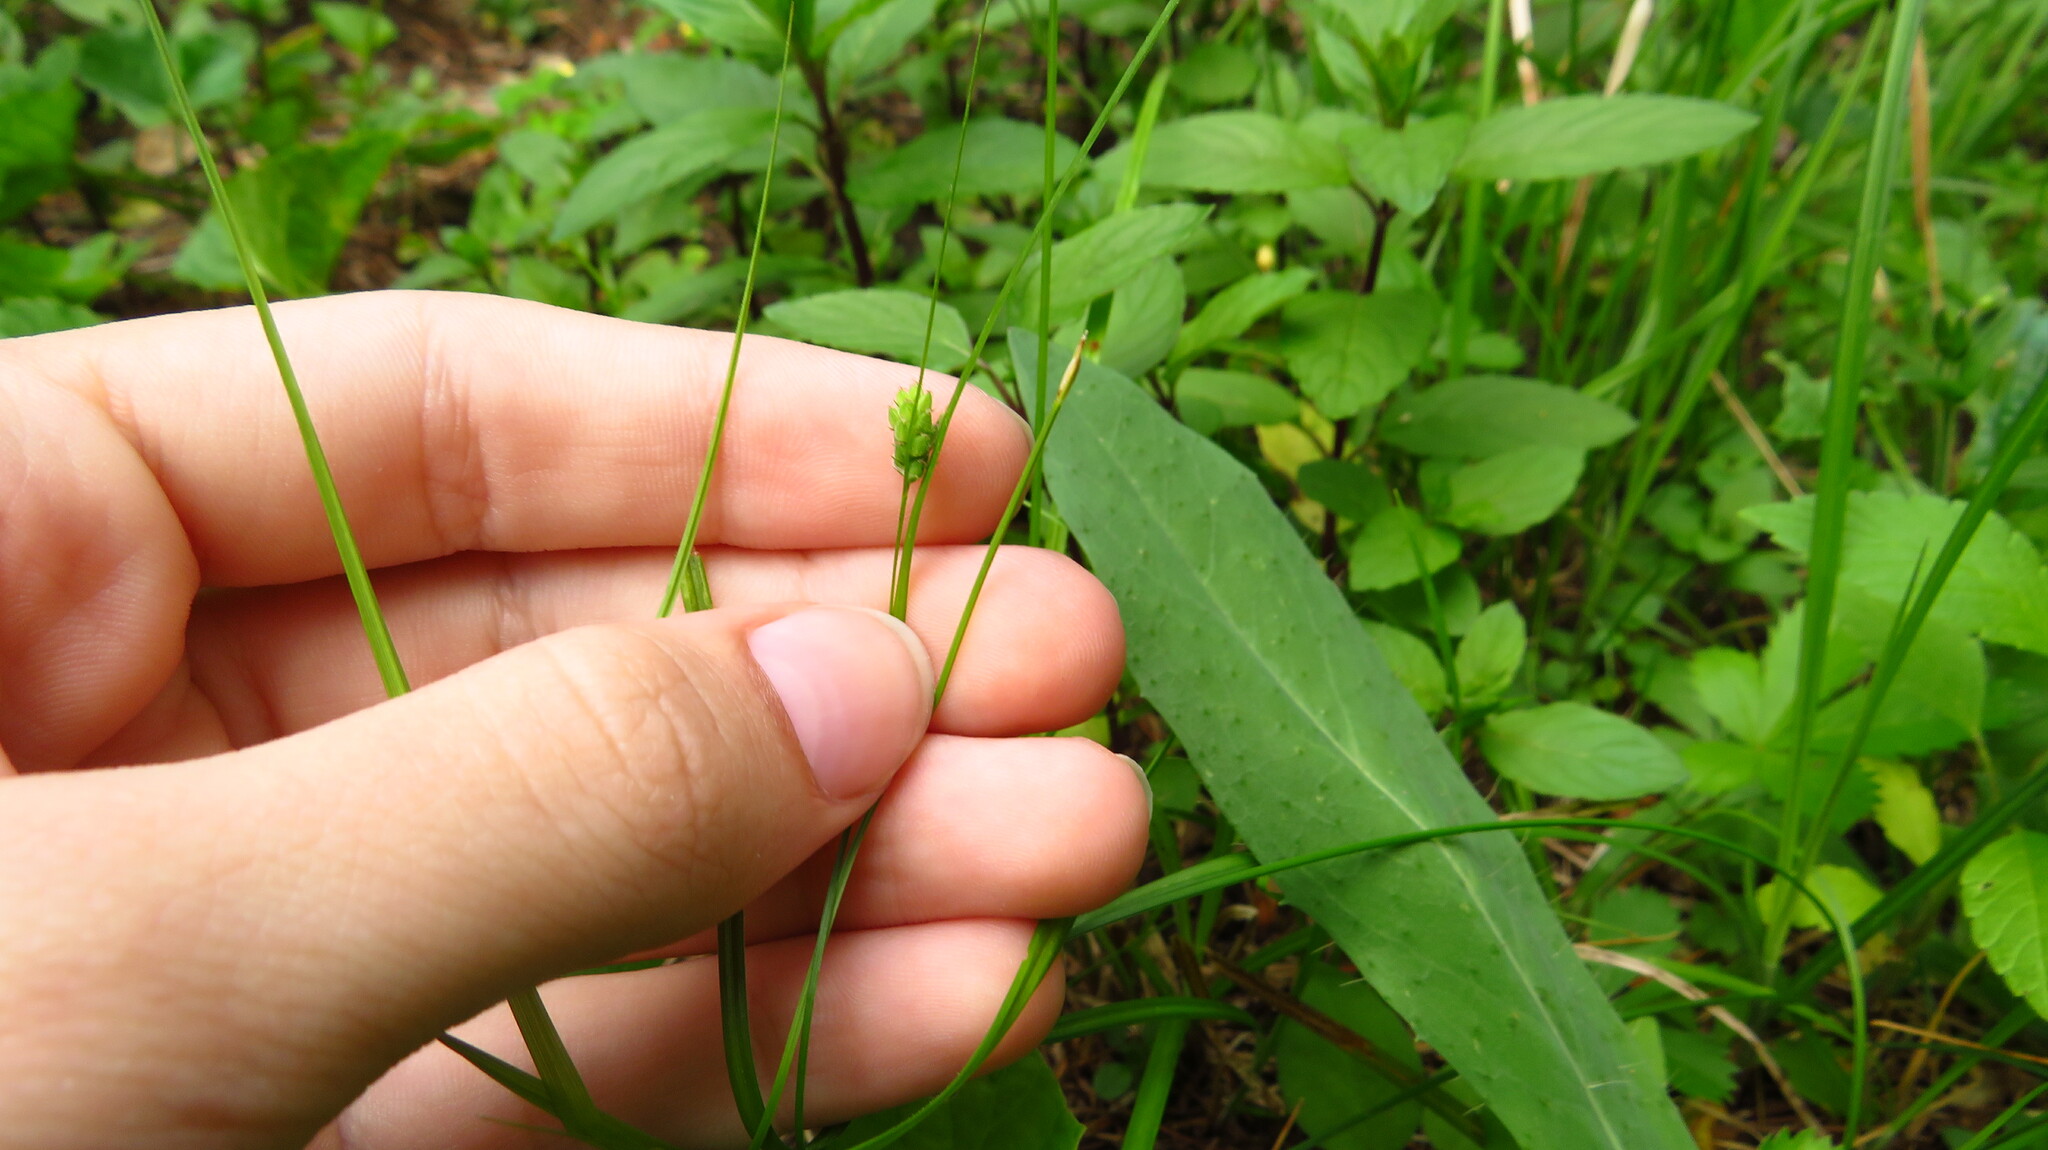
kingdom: Plantae
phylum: Tracheophyta
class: Liliopsida
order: Poales
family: Cyperaceae
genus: Carex
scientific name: Carex swanii
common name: Downy green sedge
